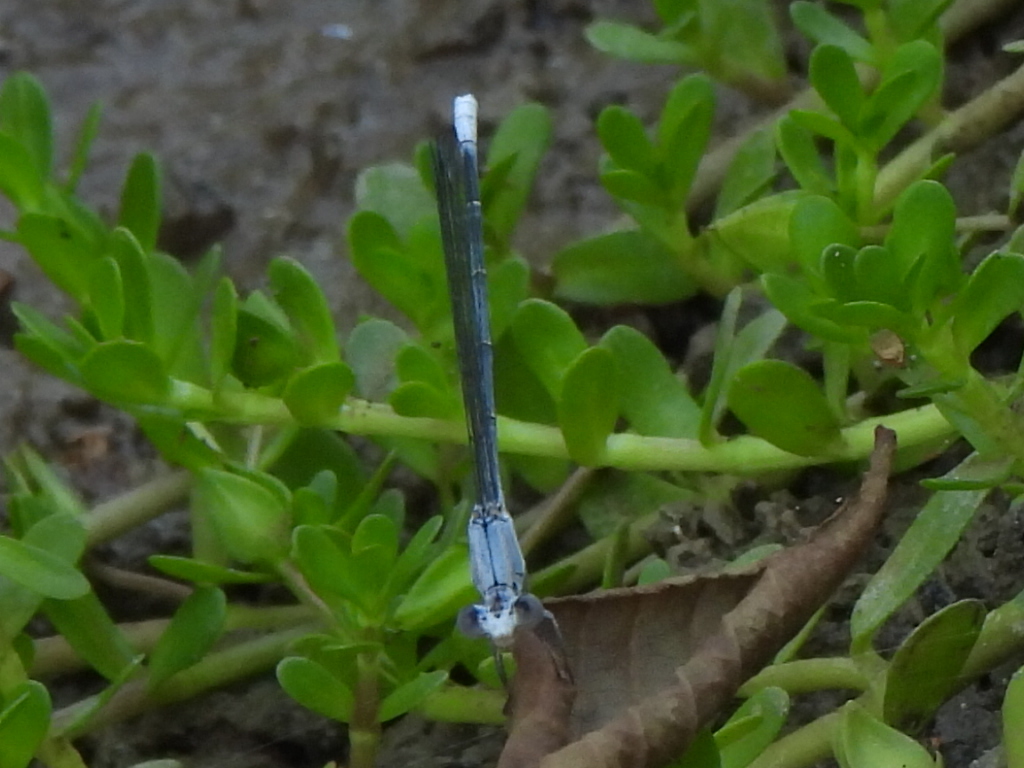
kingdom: Animalia
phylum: Arthropoda
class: Insecta
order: Odonata
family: Coenagrionidae
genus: Argia
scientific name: Argia moesta
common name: Powdered dancer
